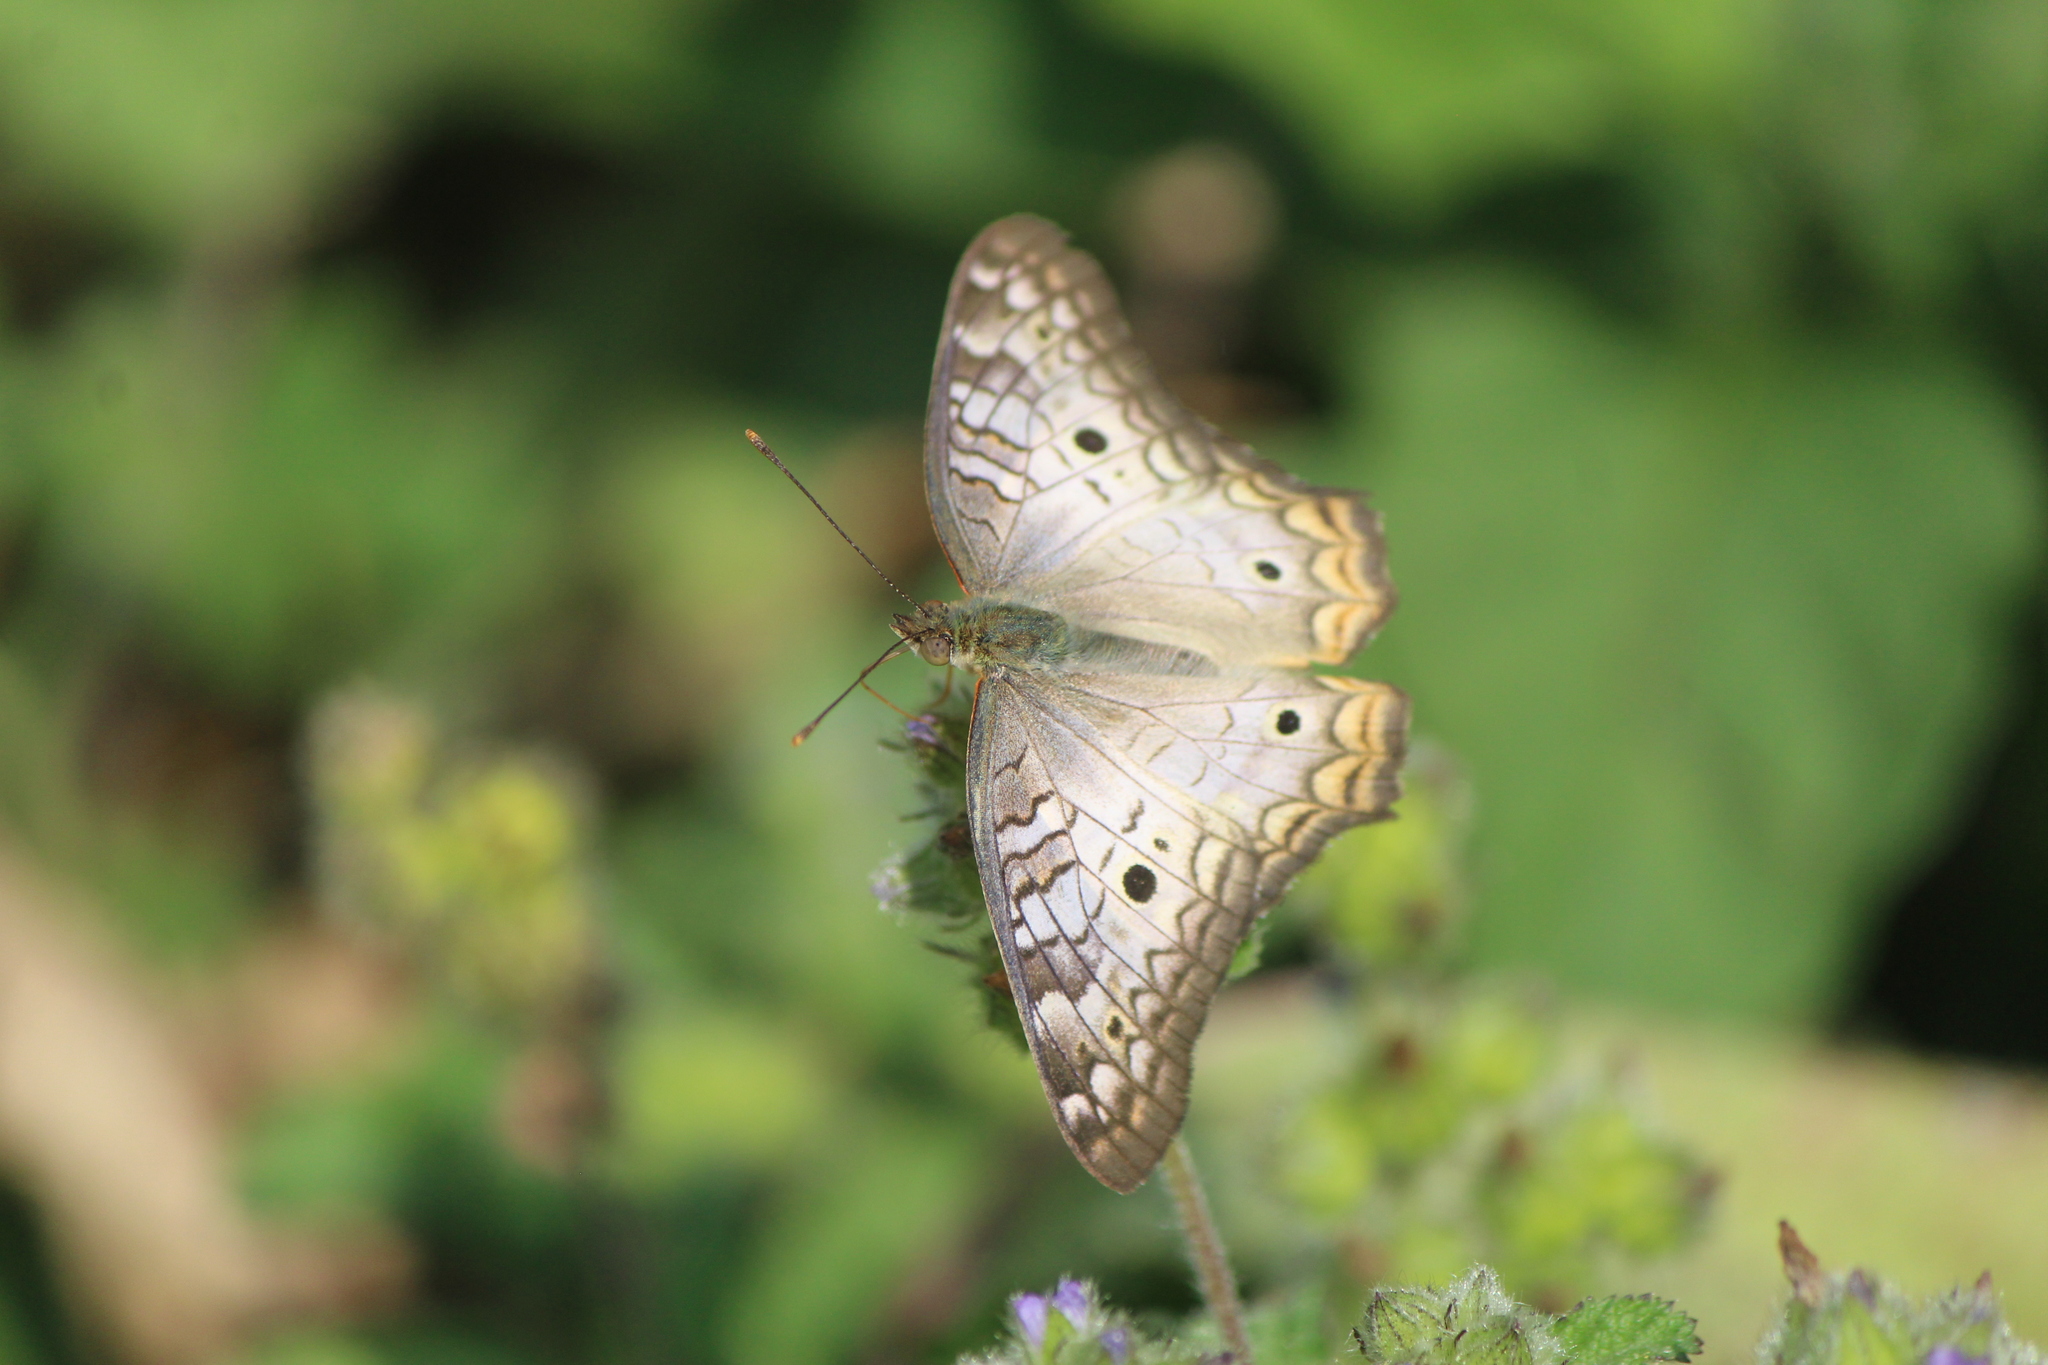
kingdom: Animalia
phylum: Arthropoda
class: Insecta
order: Lepidoptera
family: Nymphalidae
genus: Anartia
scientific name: Anartia jatrophae
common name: White peacock
